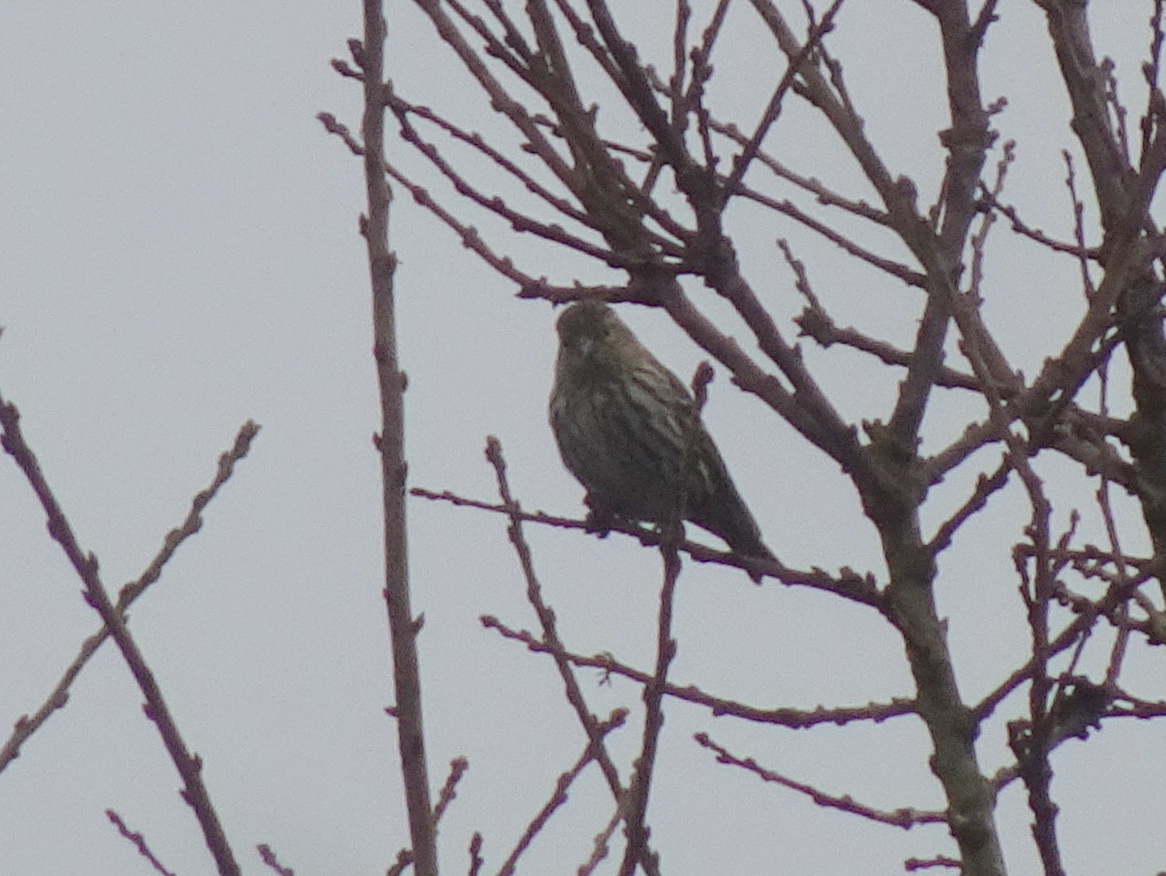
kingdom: Animalia
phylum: Chordata
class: Aves
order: Passeriformes
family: Fringillidae
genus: Spinus
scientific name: Spinus pinus
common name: Pine siskin
